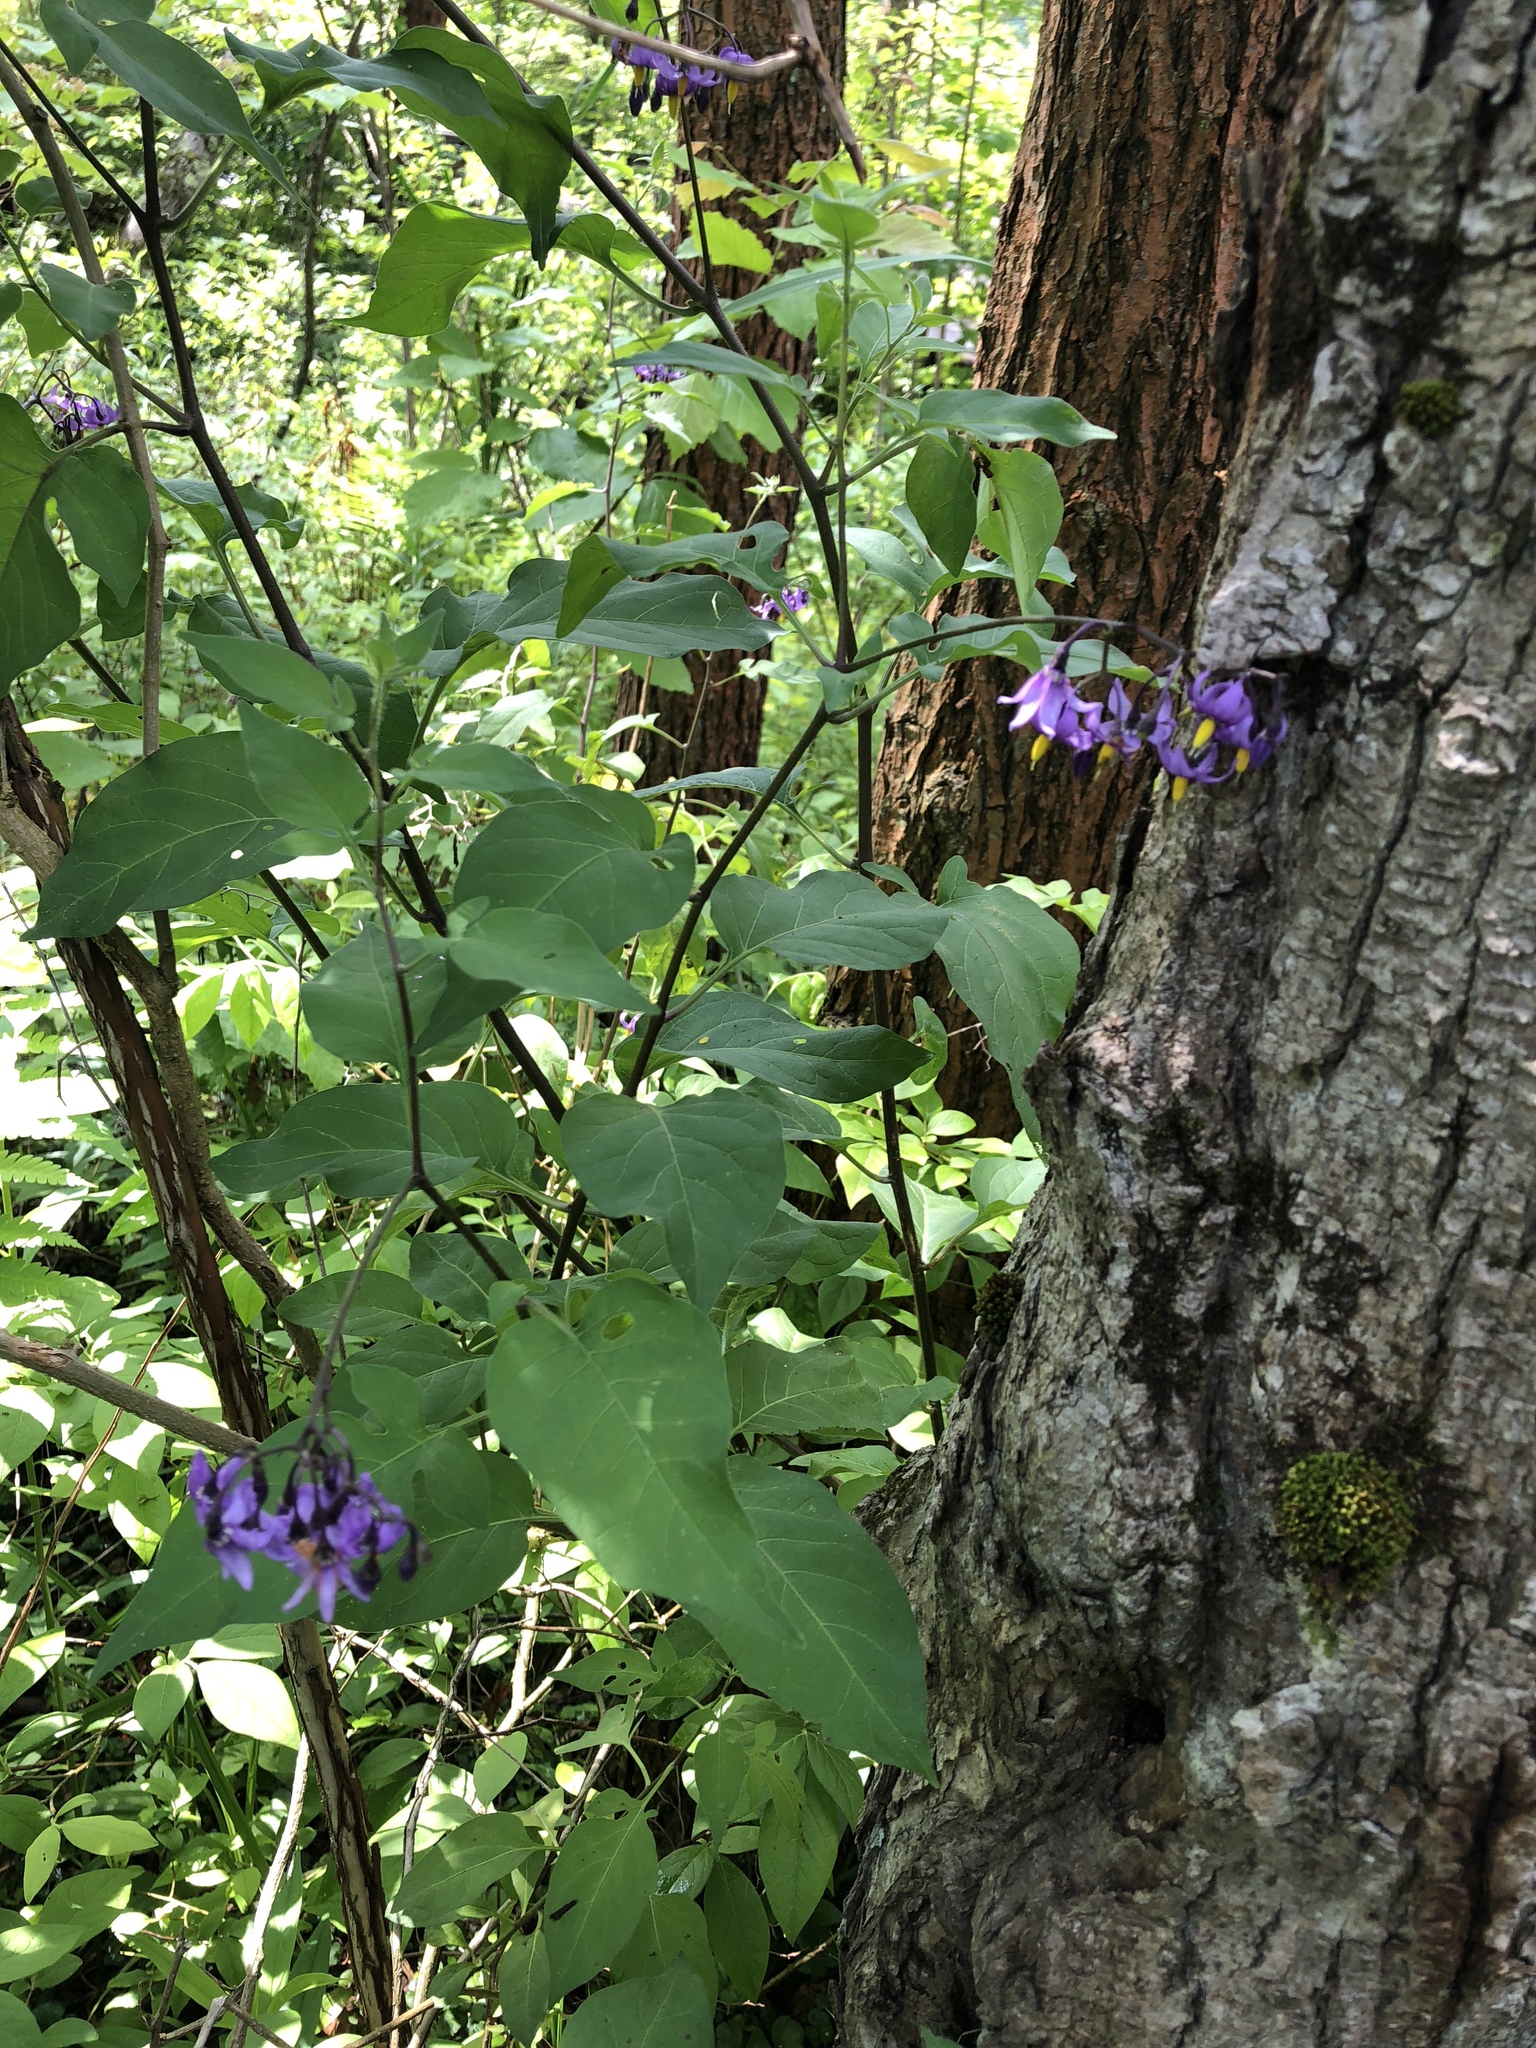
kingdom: Plantae
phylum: Tracheophyta
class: Magnoliopsida
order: Solanales
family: Solanaceae
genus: Solanum
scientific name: Solanum dulcamara
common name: Climbing nightshade
